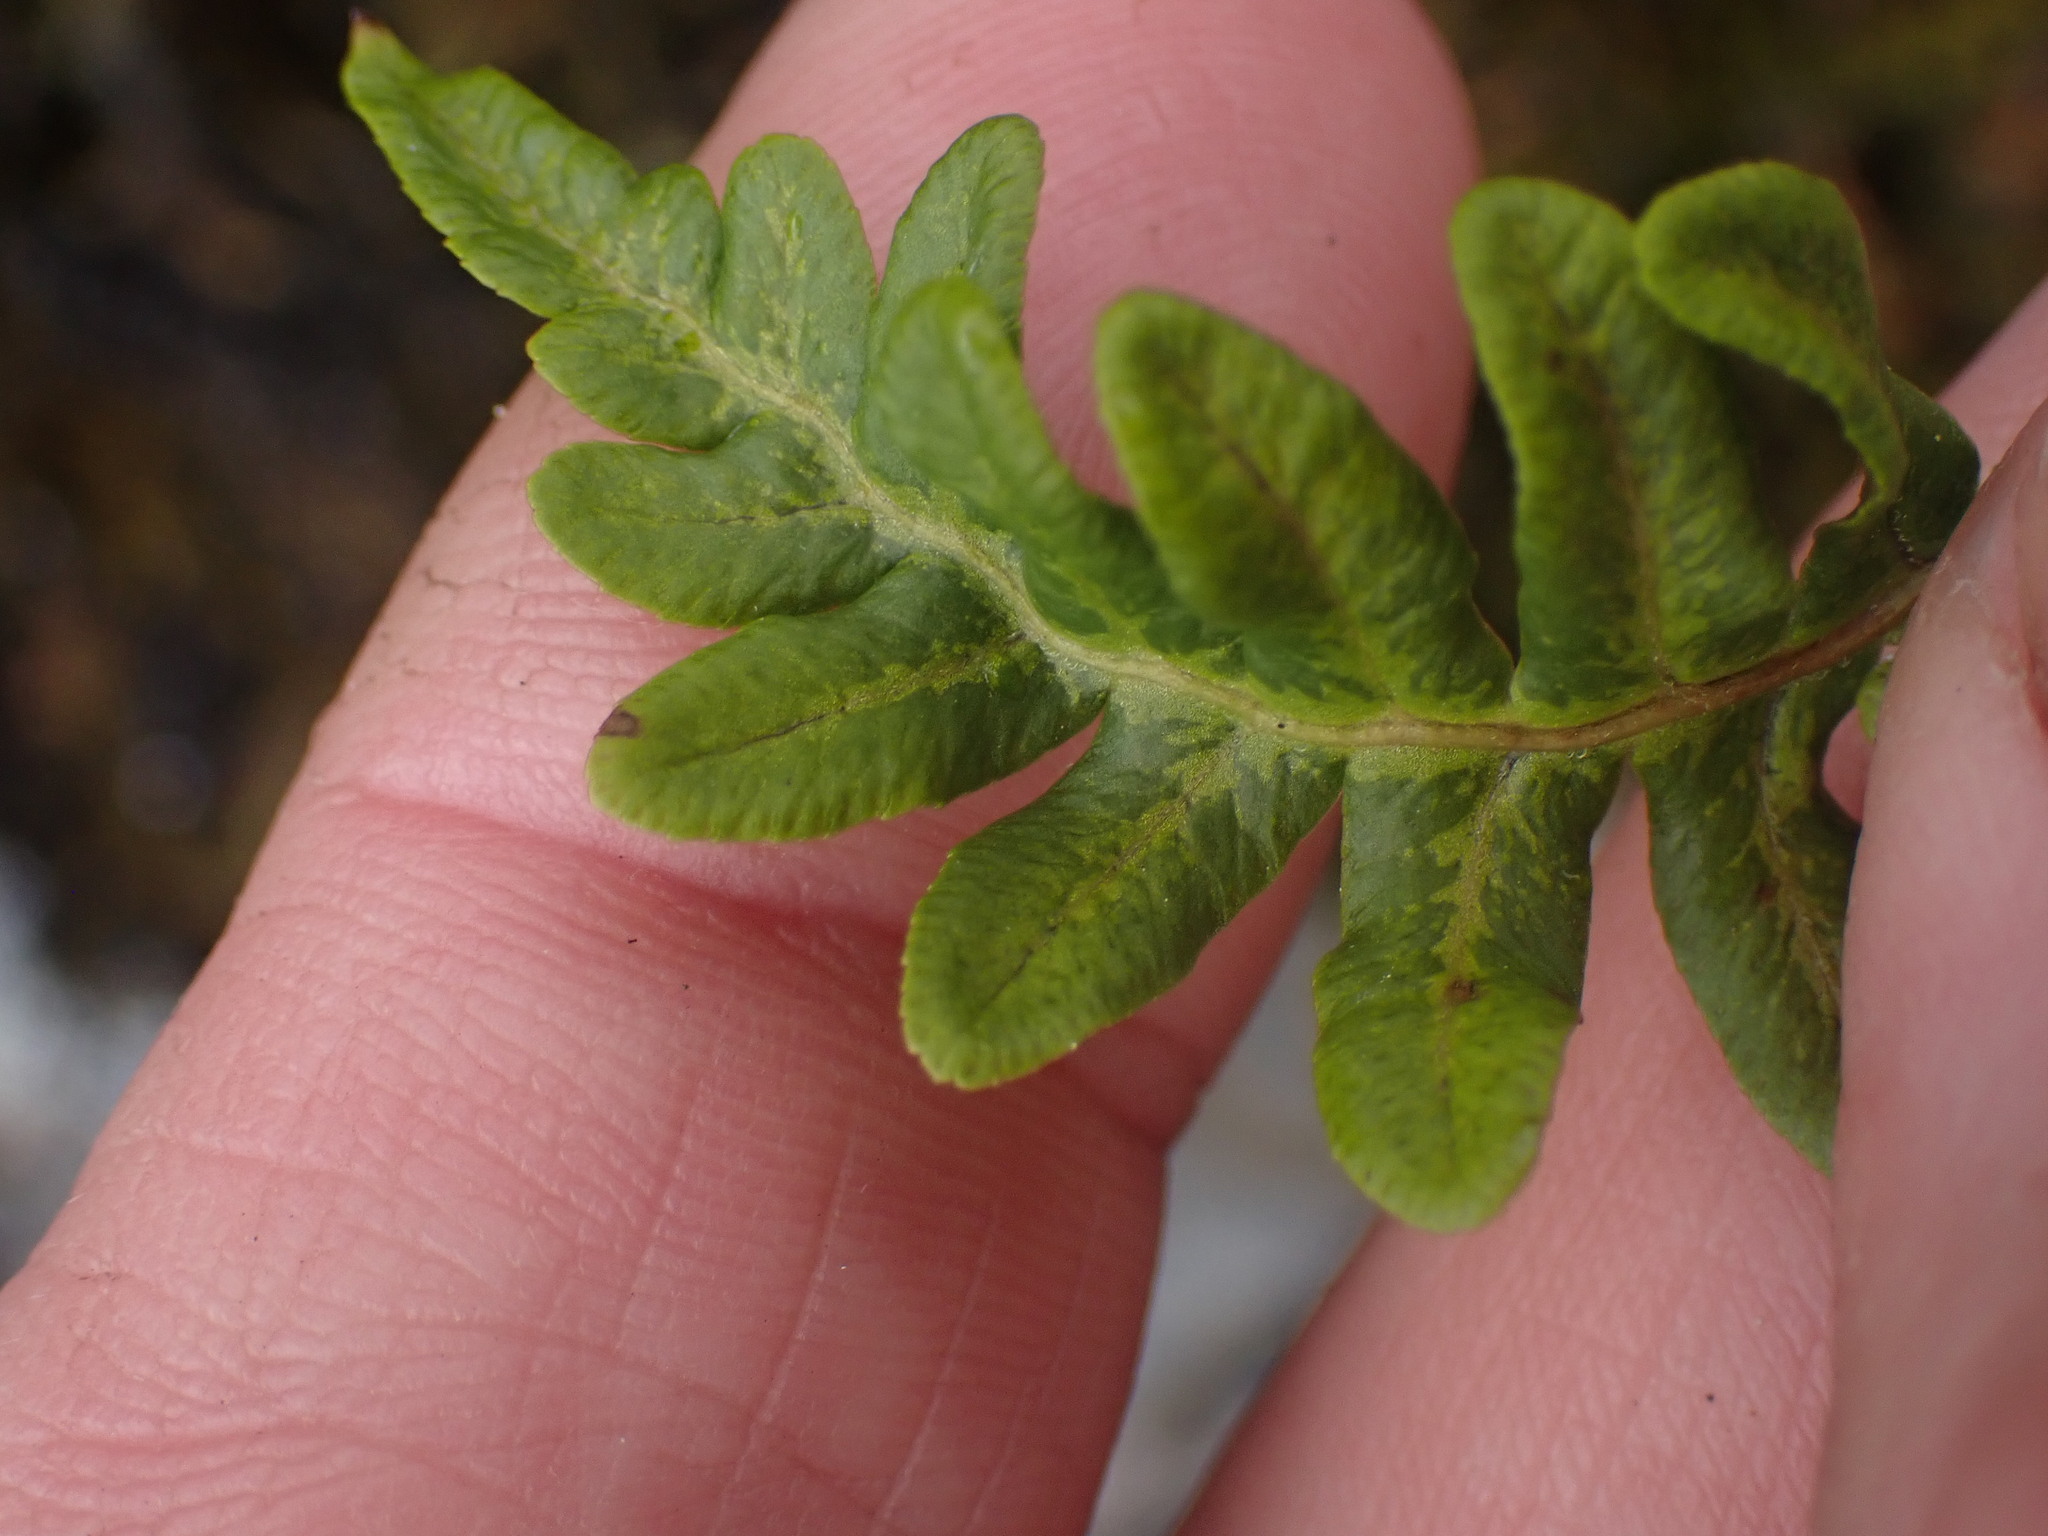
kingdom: Plantae
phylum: Tracheophyta
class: Polypodiopsida
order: Polypodiales
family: Polypodiaceae
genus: Polypodium
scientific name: Polypodium glycyrrhiza
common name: Licorice fern
